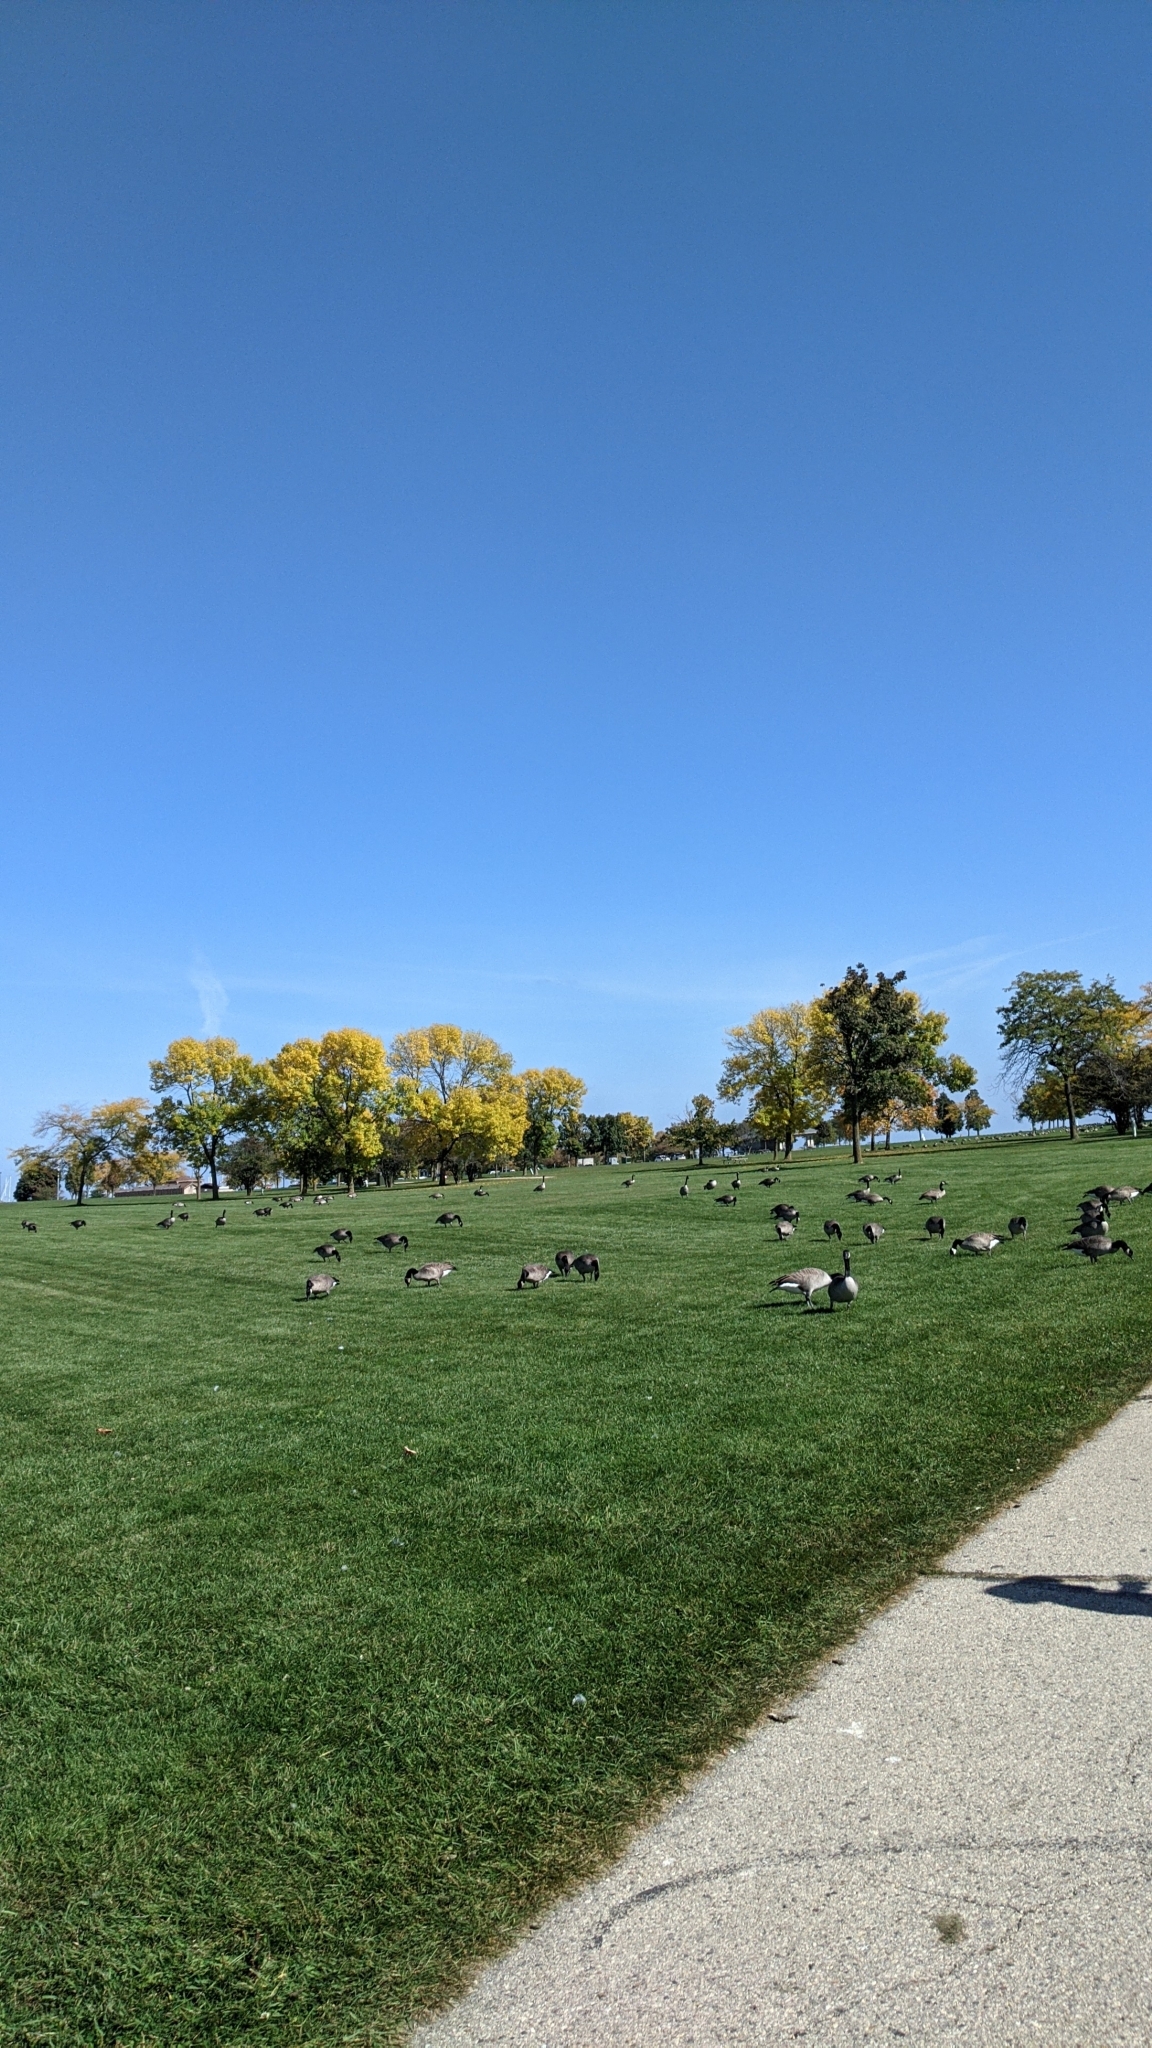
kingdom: Animalia
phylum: Chordata
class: Aves
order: Anseriformes
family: Anatidae
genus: Branta
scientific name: Branta canadensis
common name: Canada goose
